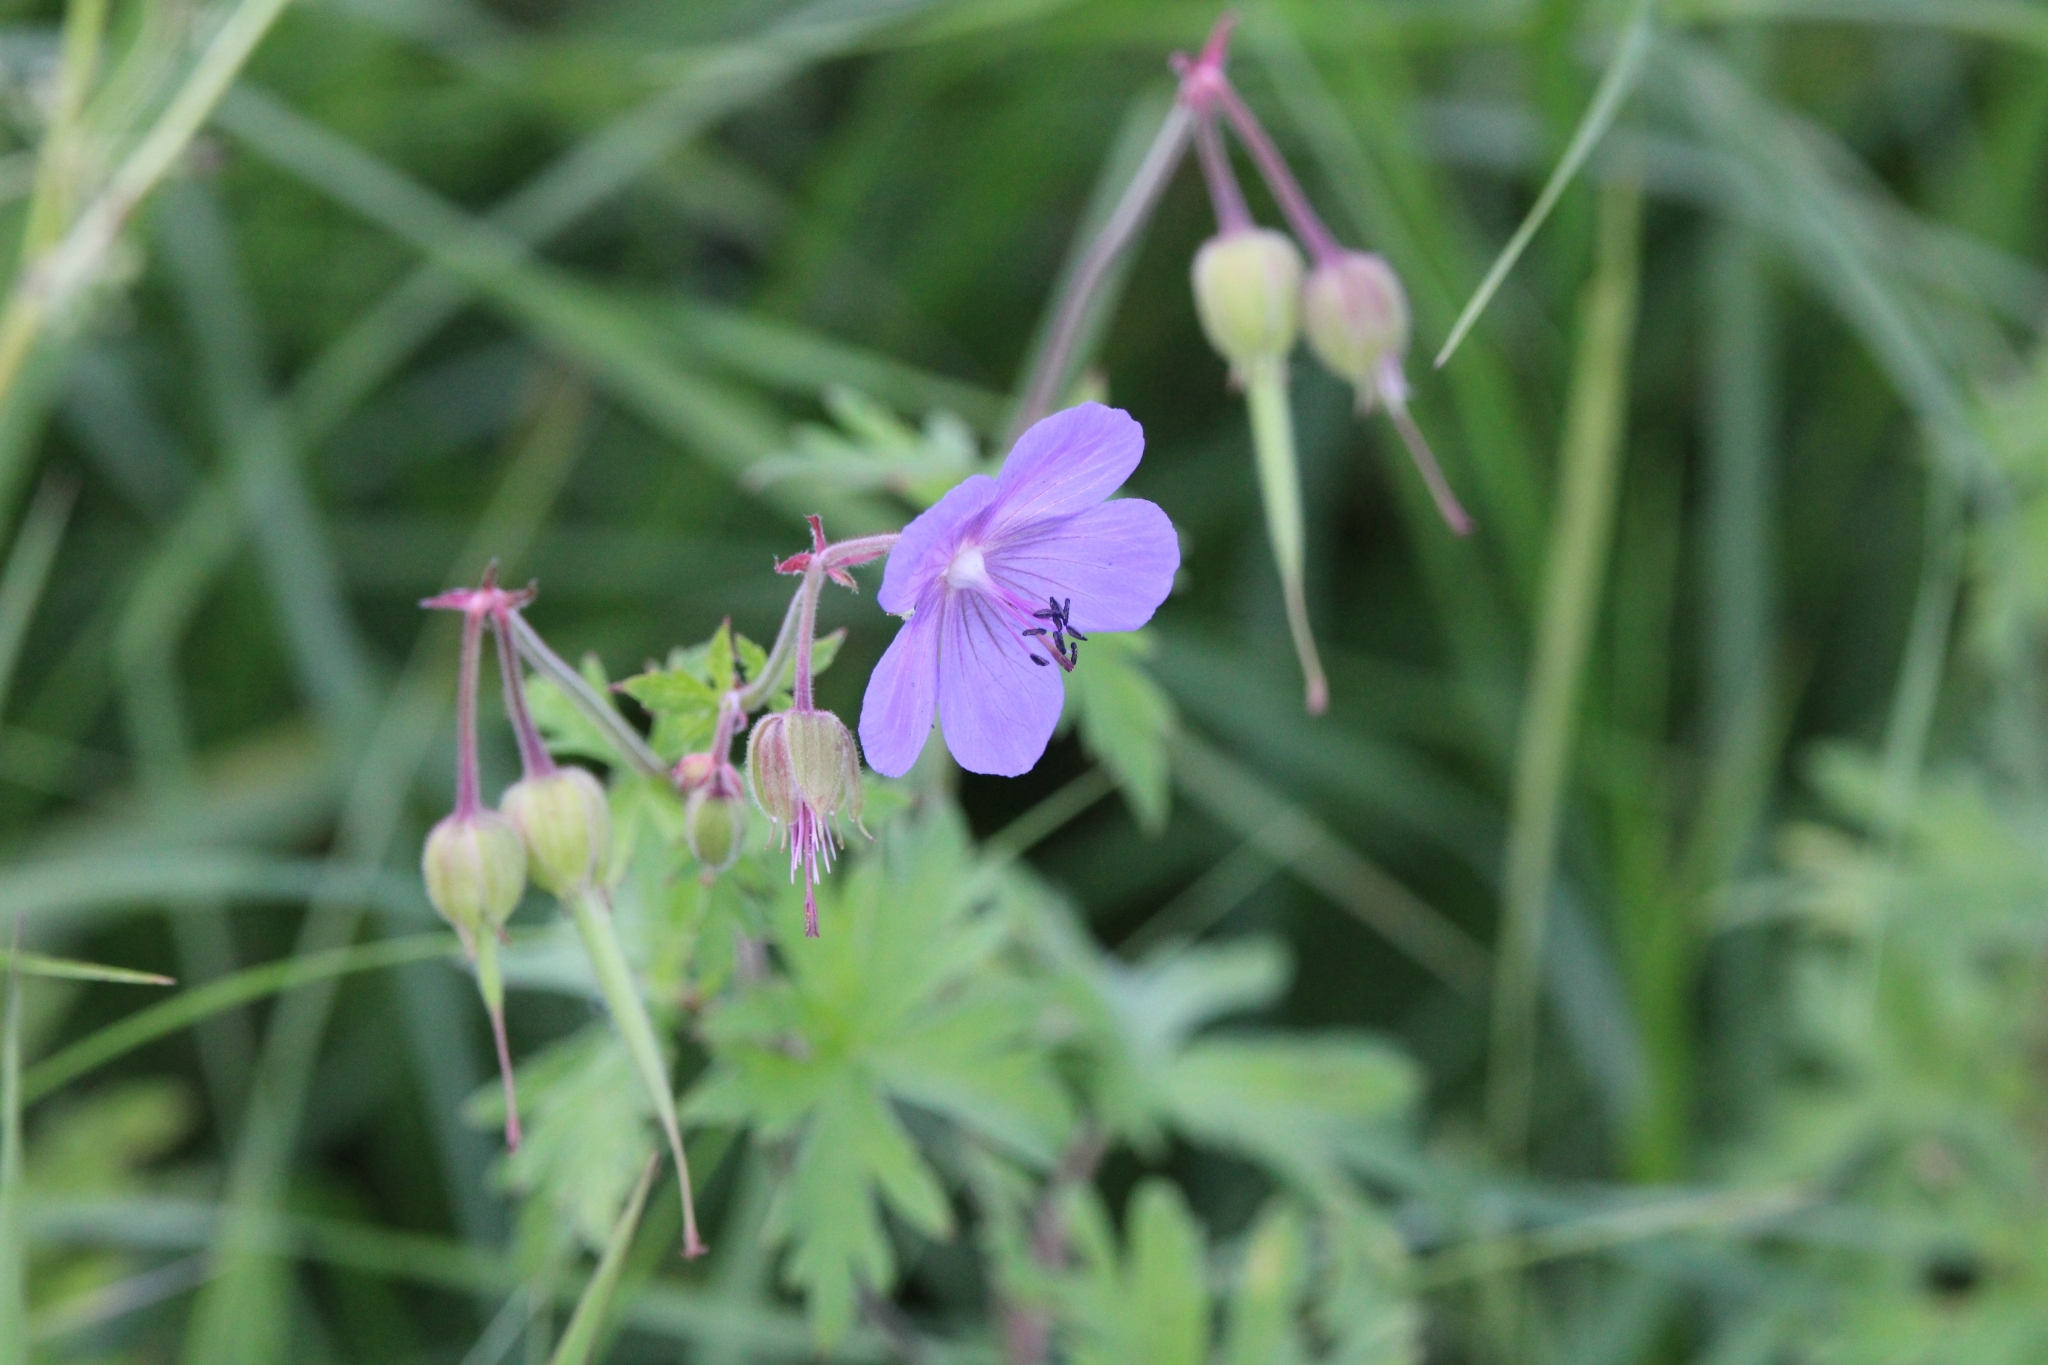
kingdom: Plantae
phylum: Tracheophyta
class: Magnoliopsida
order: Geraniales
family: Geraniaceae
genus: Geranium
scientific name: Geranium pratense
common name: Meadow crane's-bill
